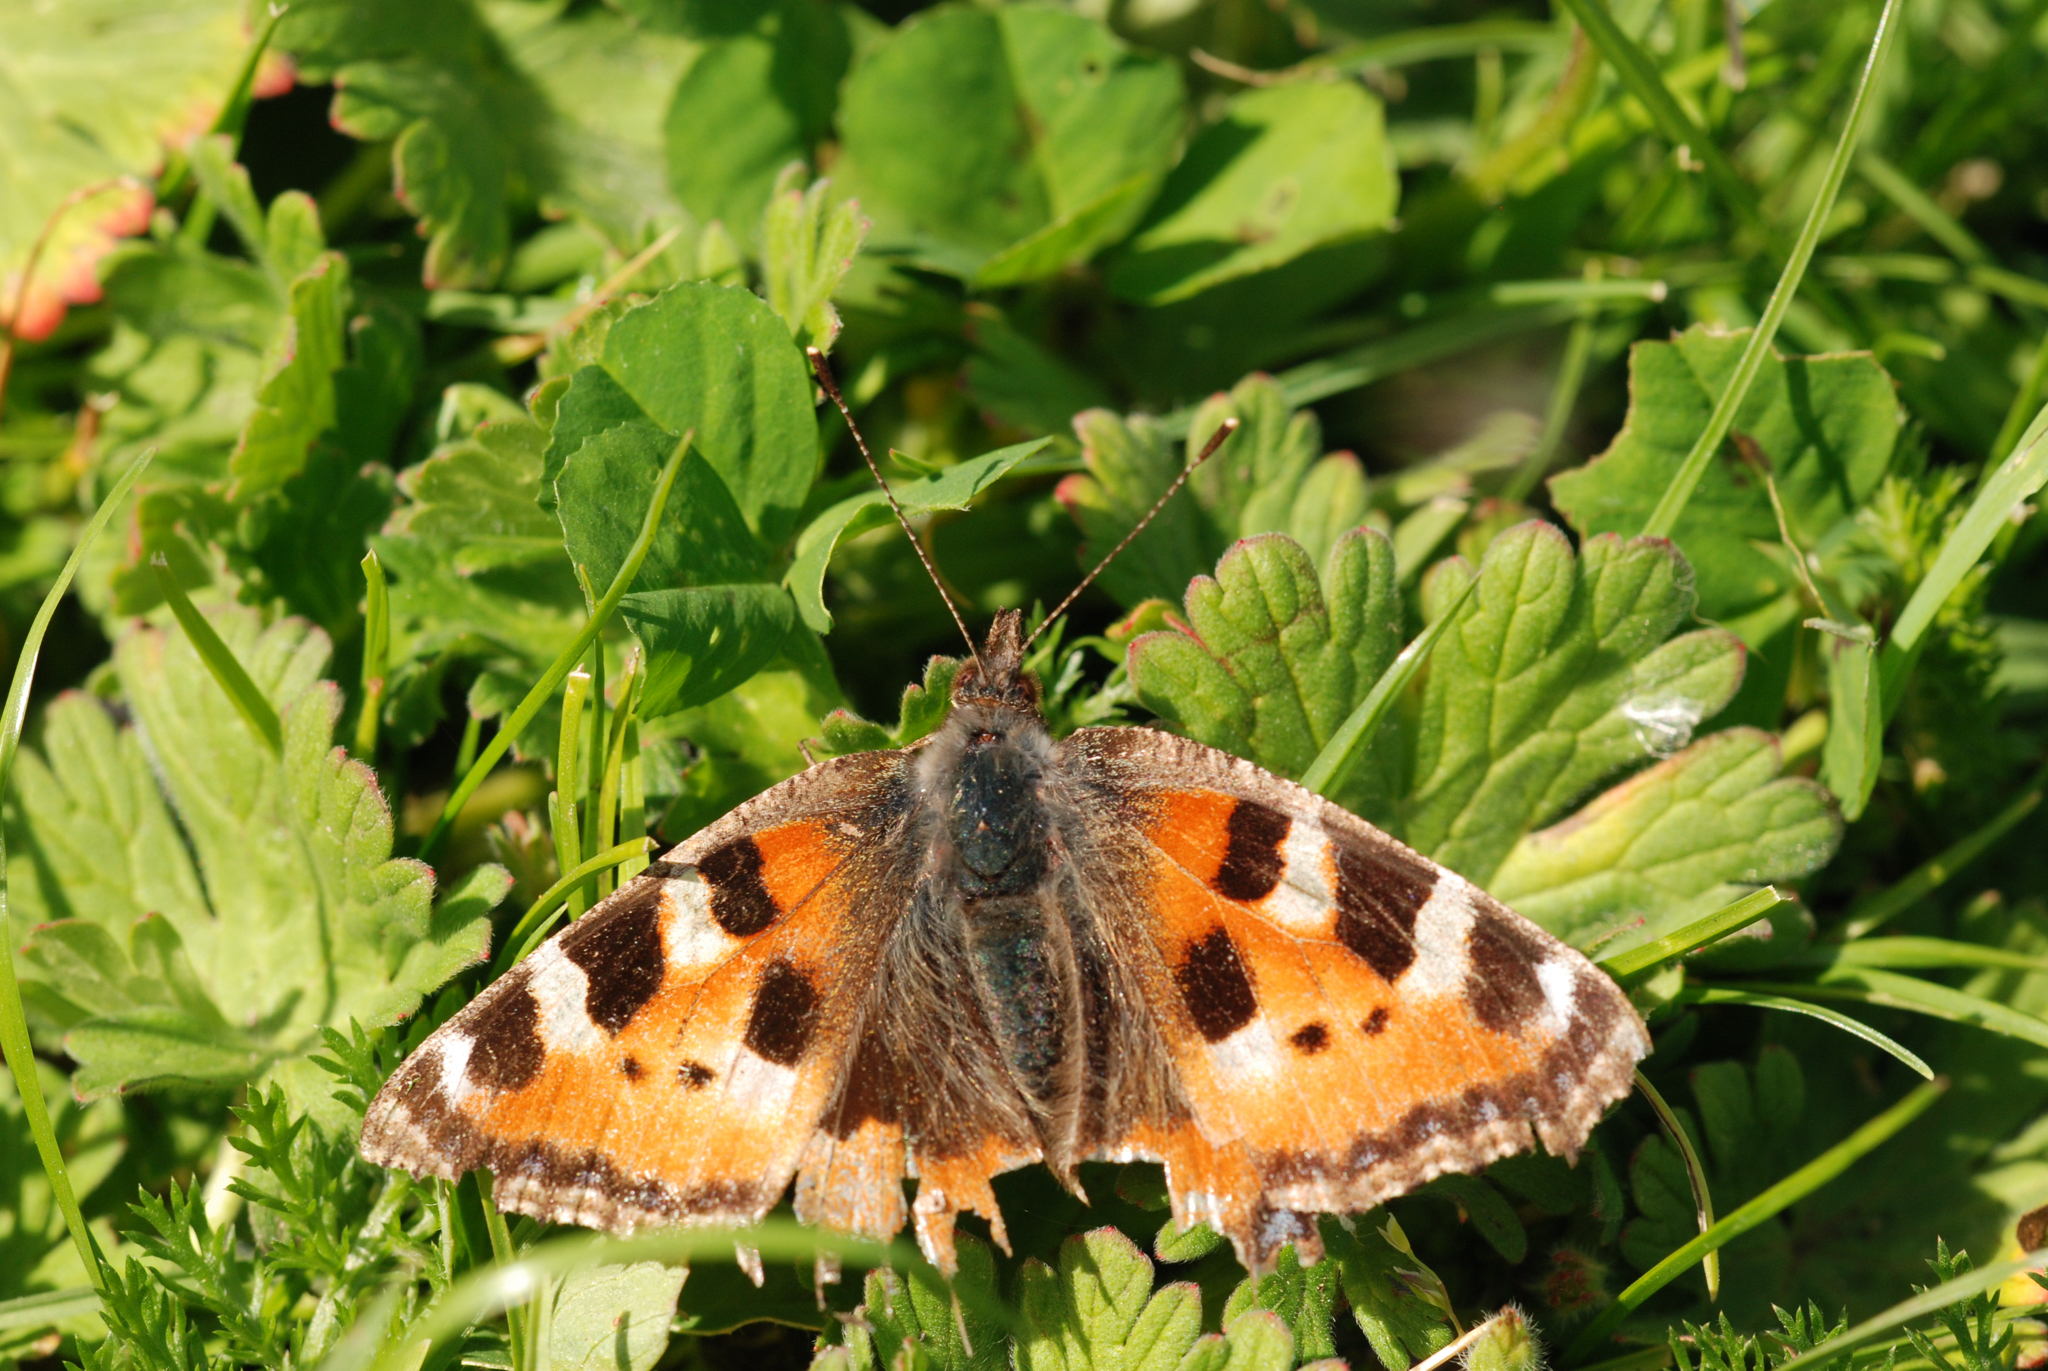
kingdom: Animalia
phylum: Arthropoda
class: Insecta
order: Lepidoptera
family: Nymphalidae
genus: Aglais
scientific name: Aglais urticae
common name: Small tortoiseshell
